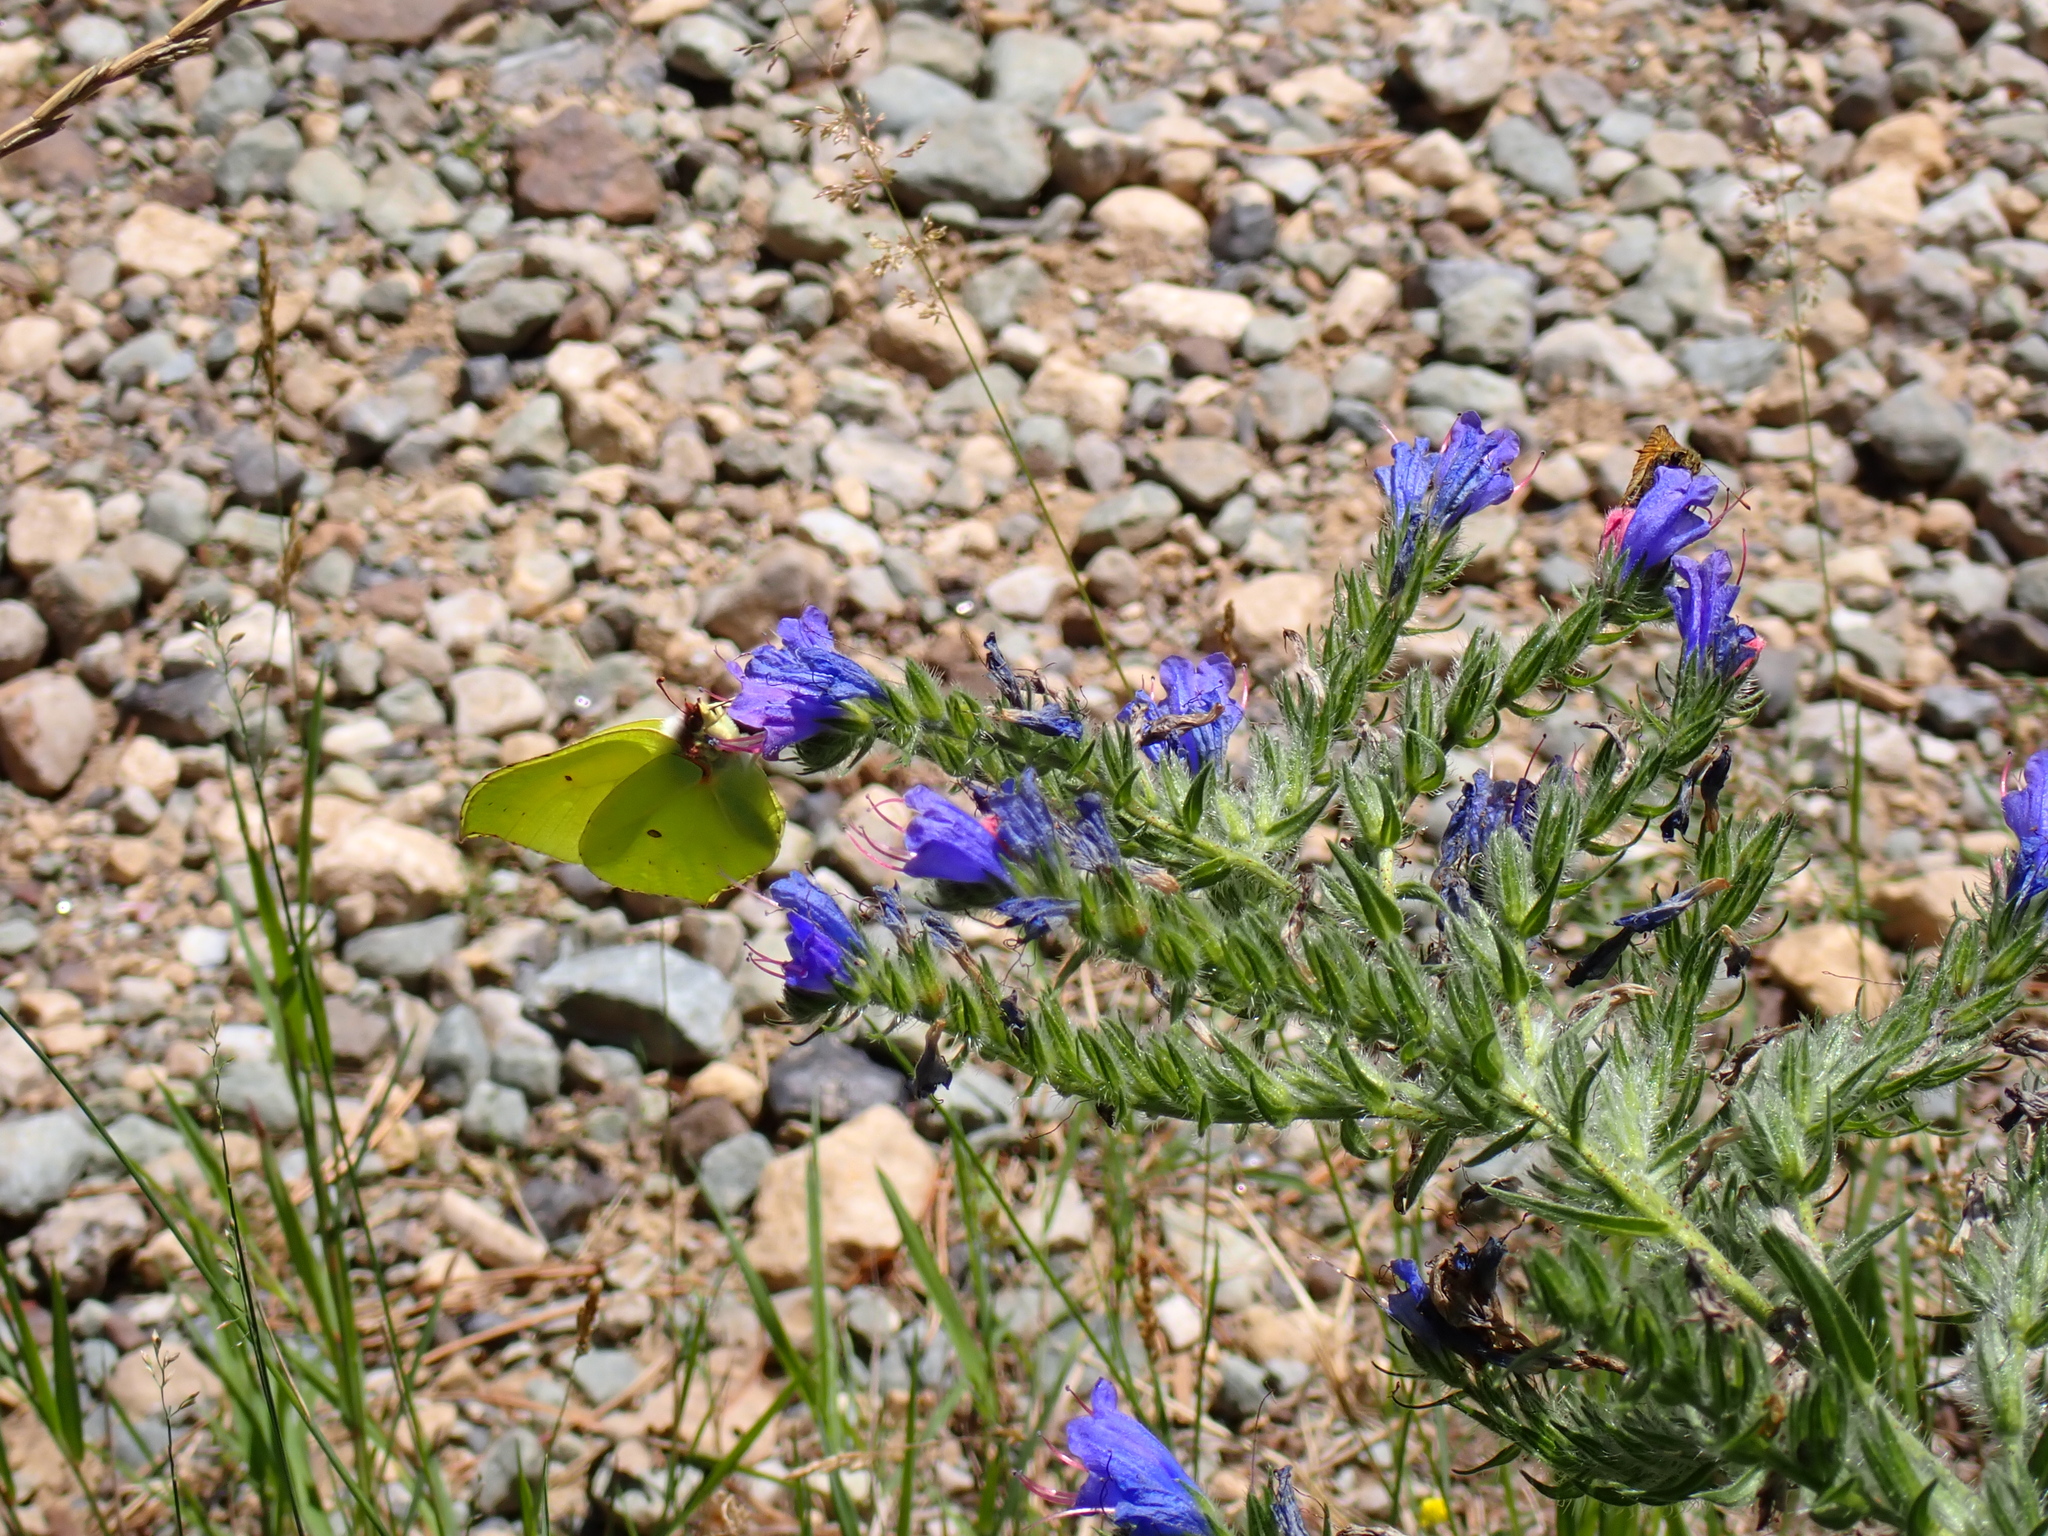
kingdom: Animalia
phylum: Arthropoda
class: Insecta
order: Lepidoptera
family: Pieridae
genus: Gonepteryx
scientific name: Gonepteryx rhamni
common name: Brimstone
